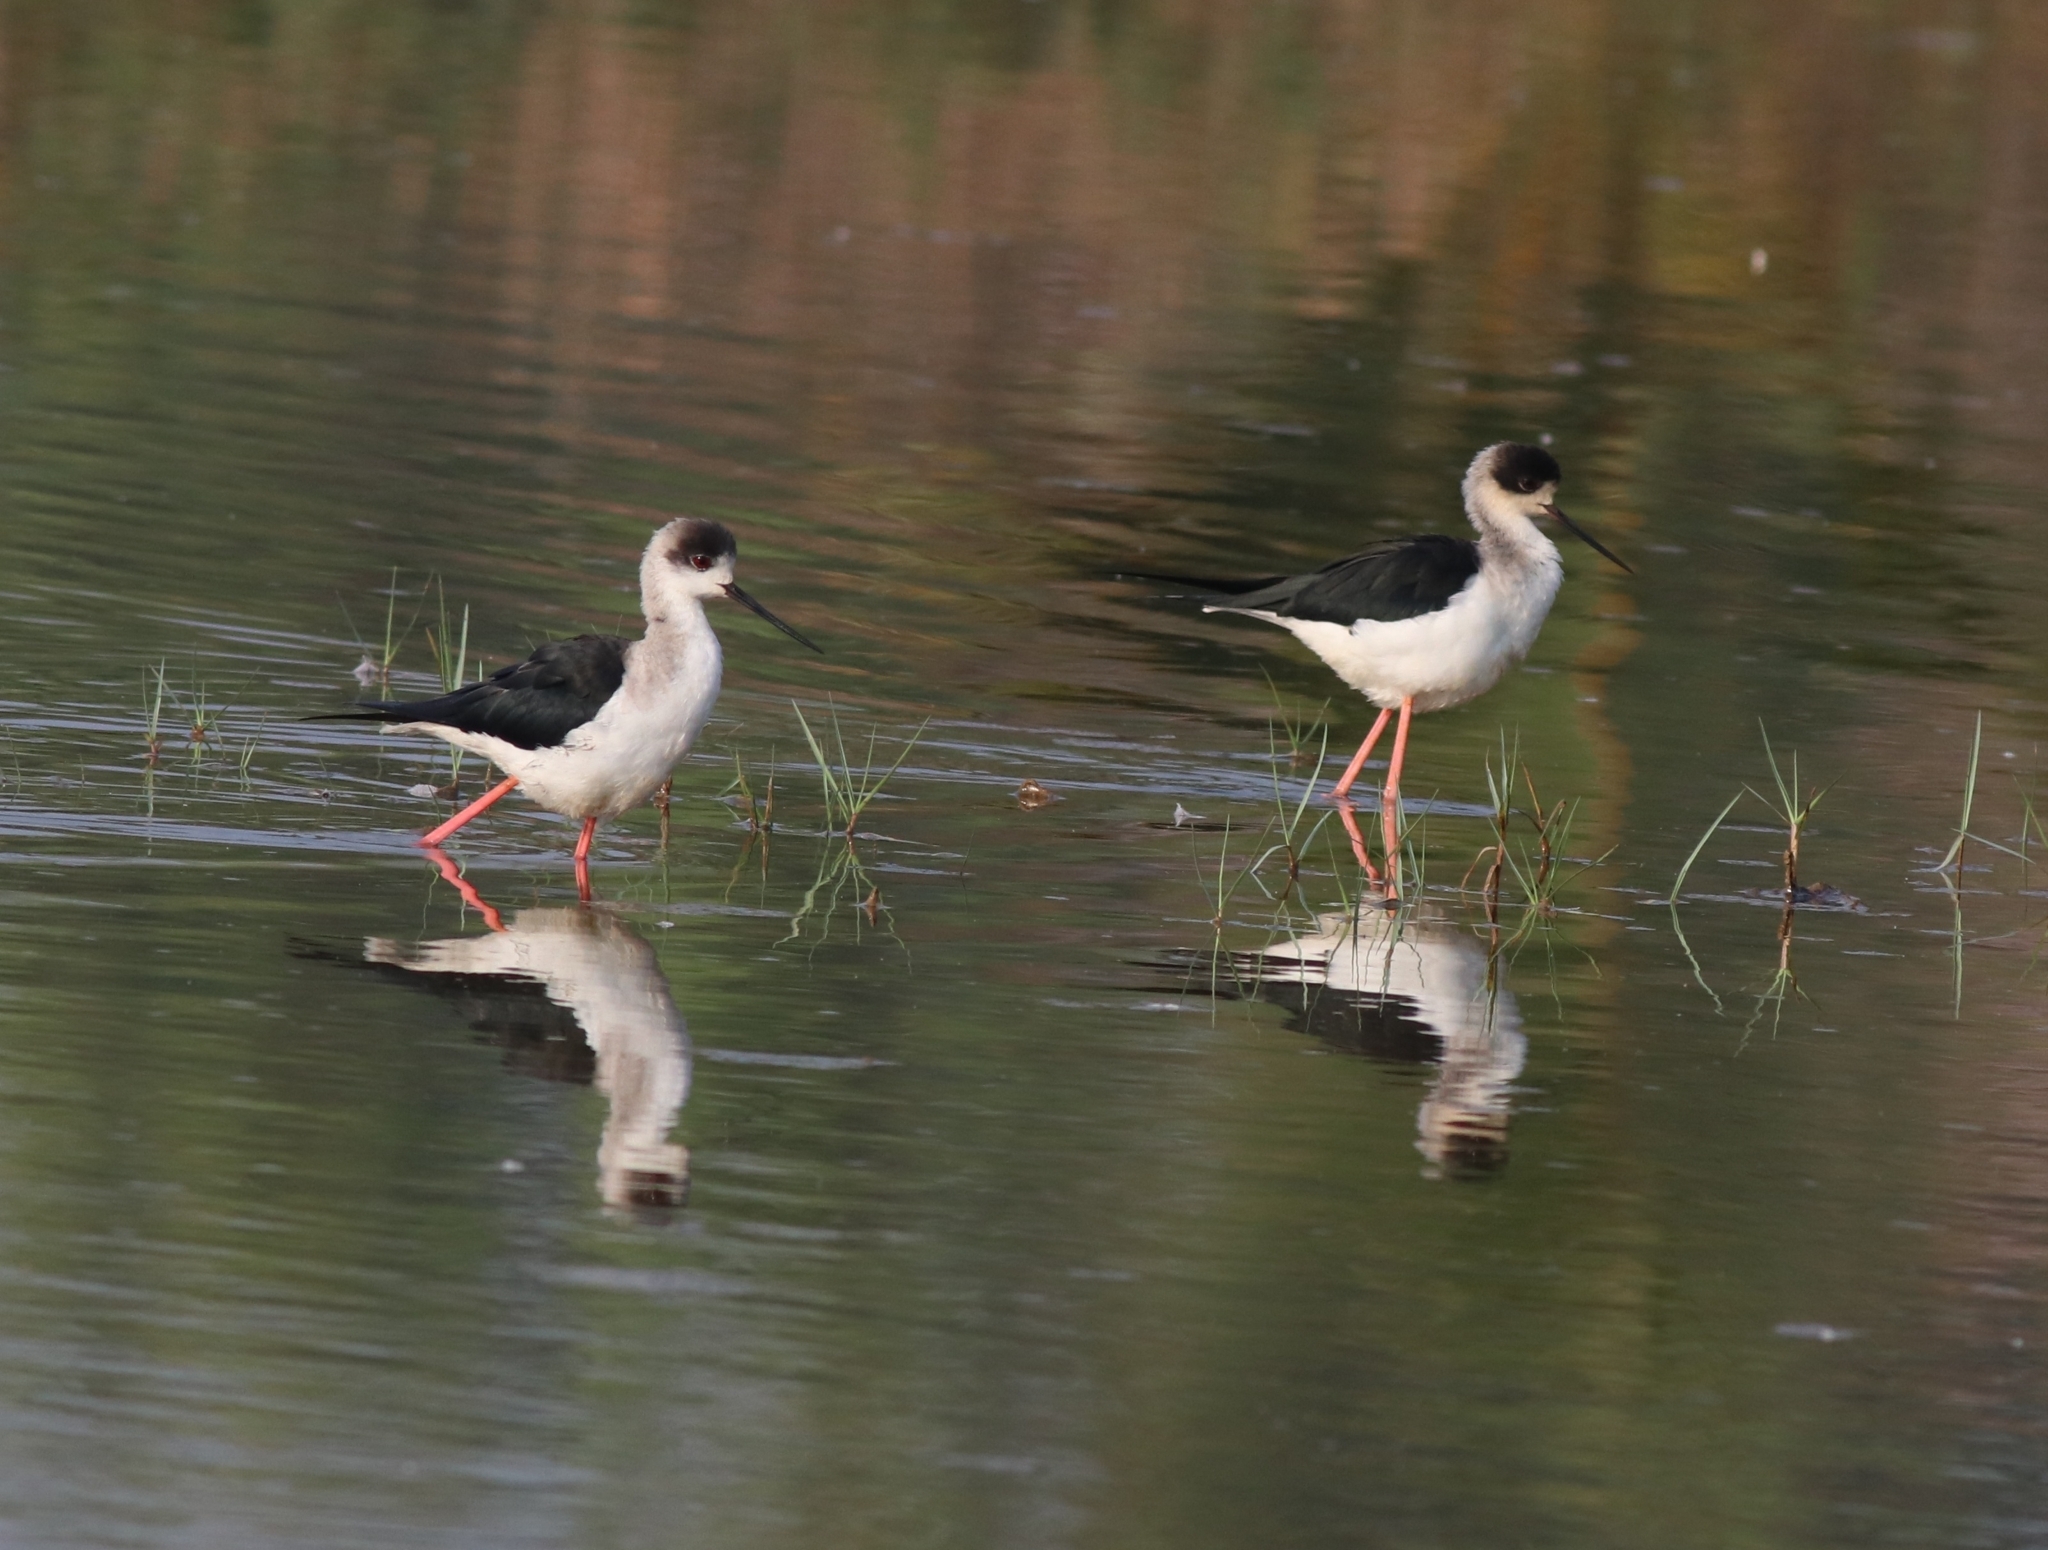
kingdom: Animalia
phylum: Chordata
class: Aves
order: Charadriiformes
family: Recurvirostridae
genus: Himantopus
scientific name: Himantopus himantopus
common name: Black-winged stilt
